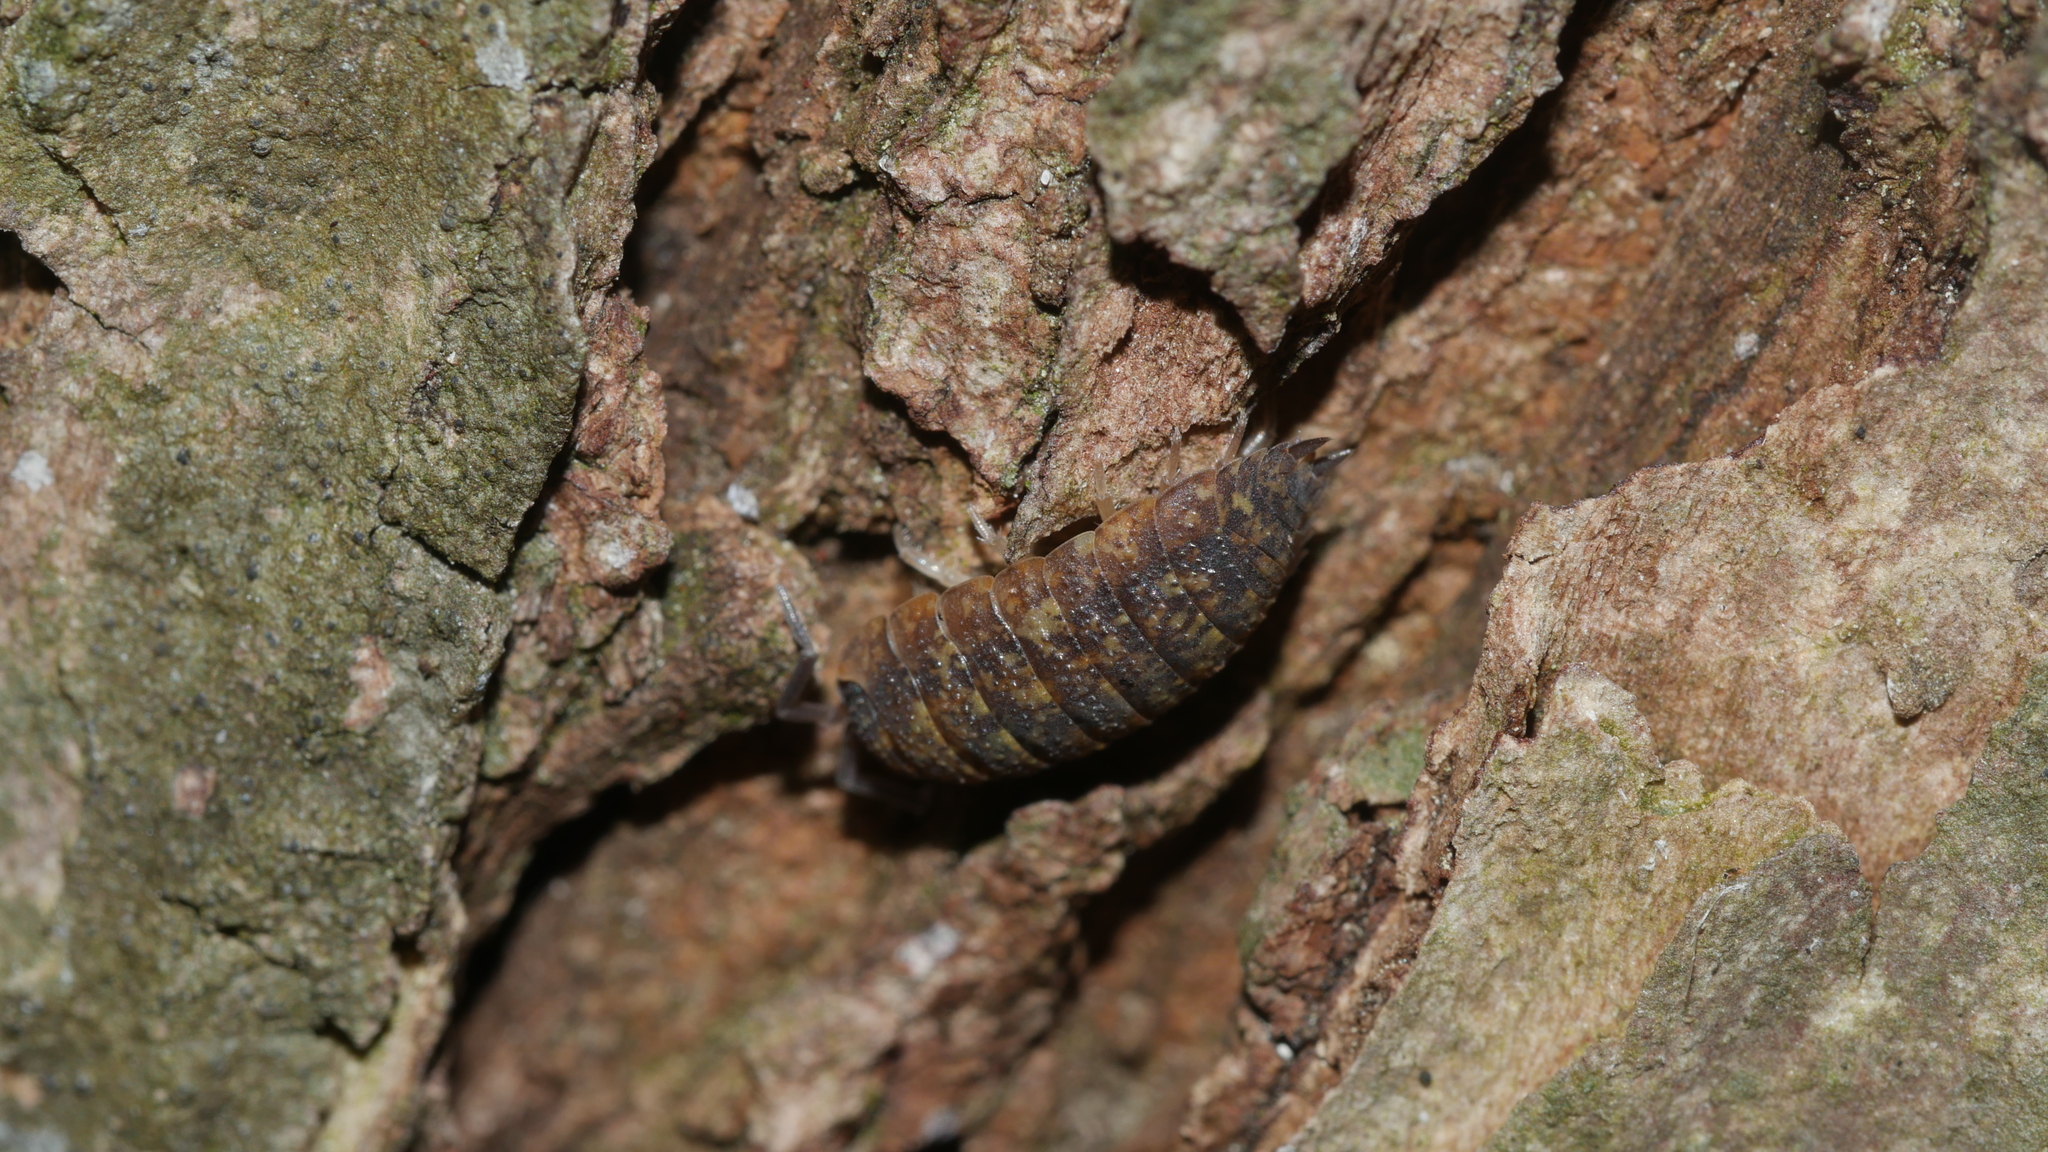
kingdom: Animalia
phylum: Arthropoda
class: Malacostraca
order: Isopoda
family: Porcellionidae
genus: Porcellio
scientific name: Porcellio scaber
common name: Common rough woodlouse
